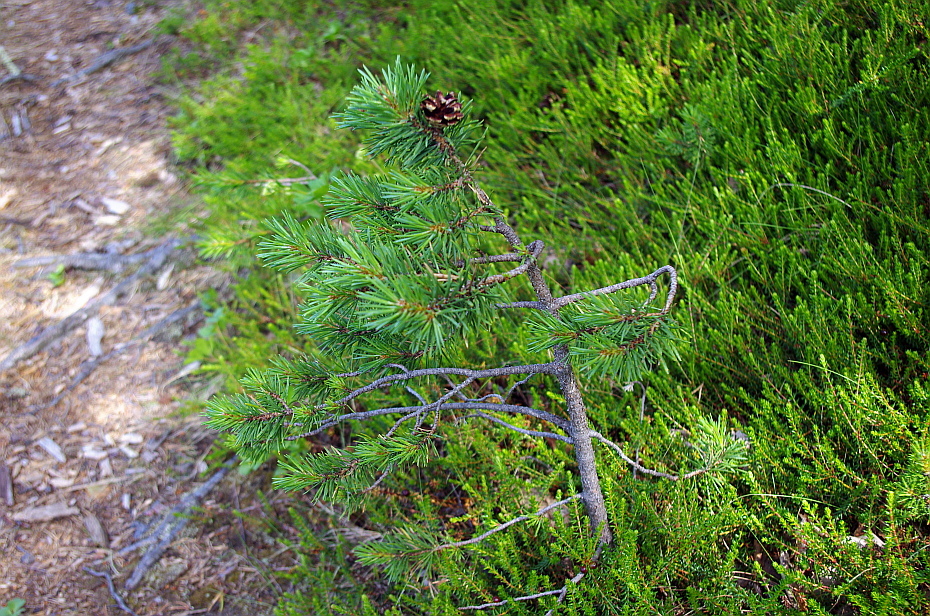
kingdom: Plantae
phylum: Tracheophyta
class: Pinopsida
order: Pinales
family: Pinaceae
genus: Pinus
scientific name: Pinus sylvestris
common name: Scots pine
